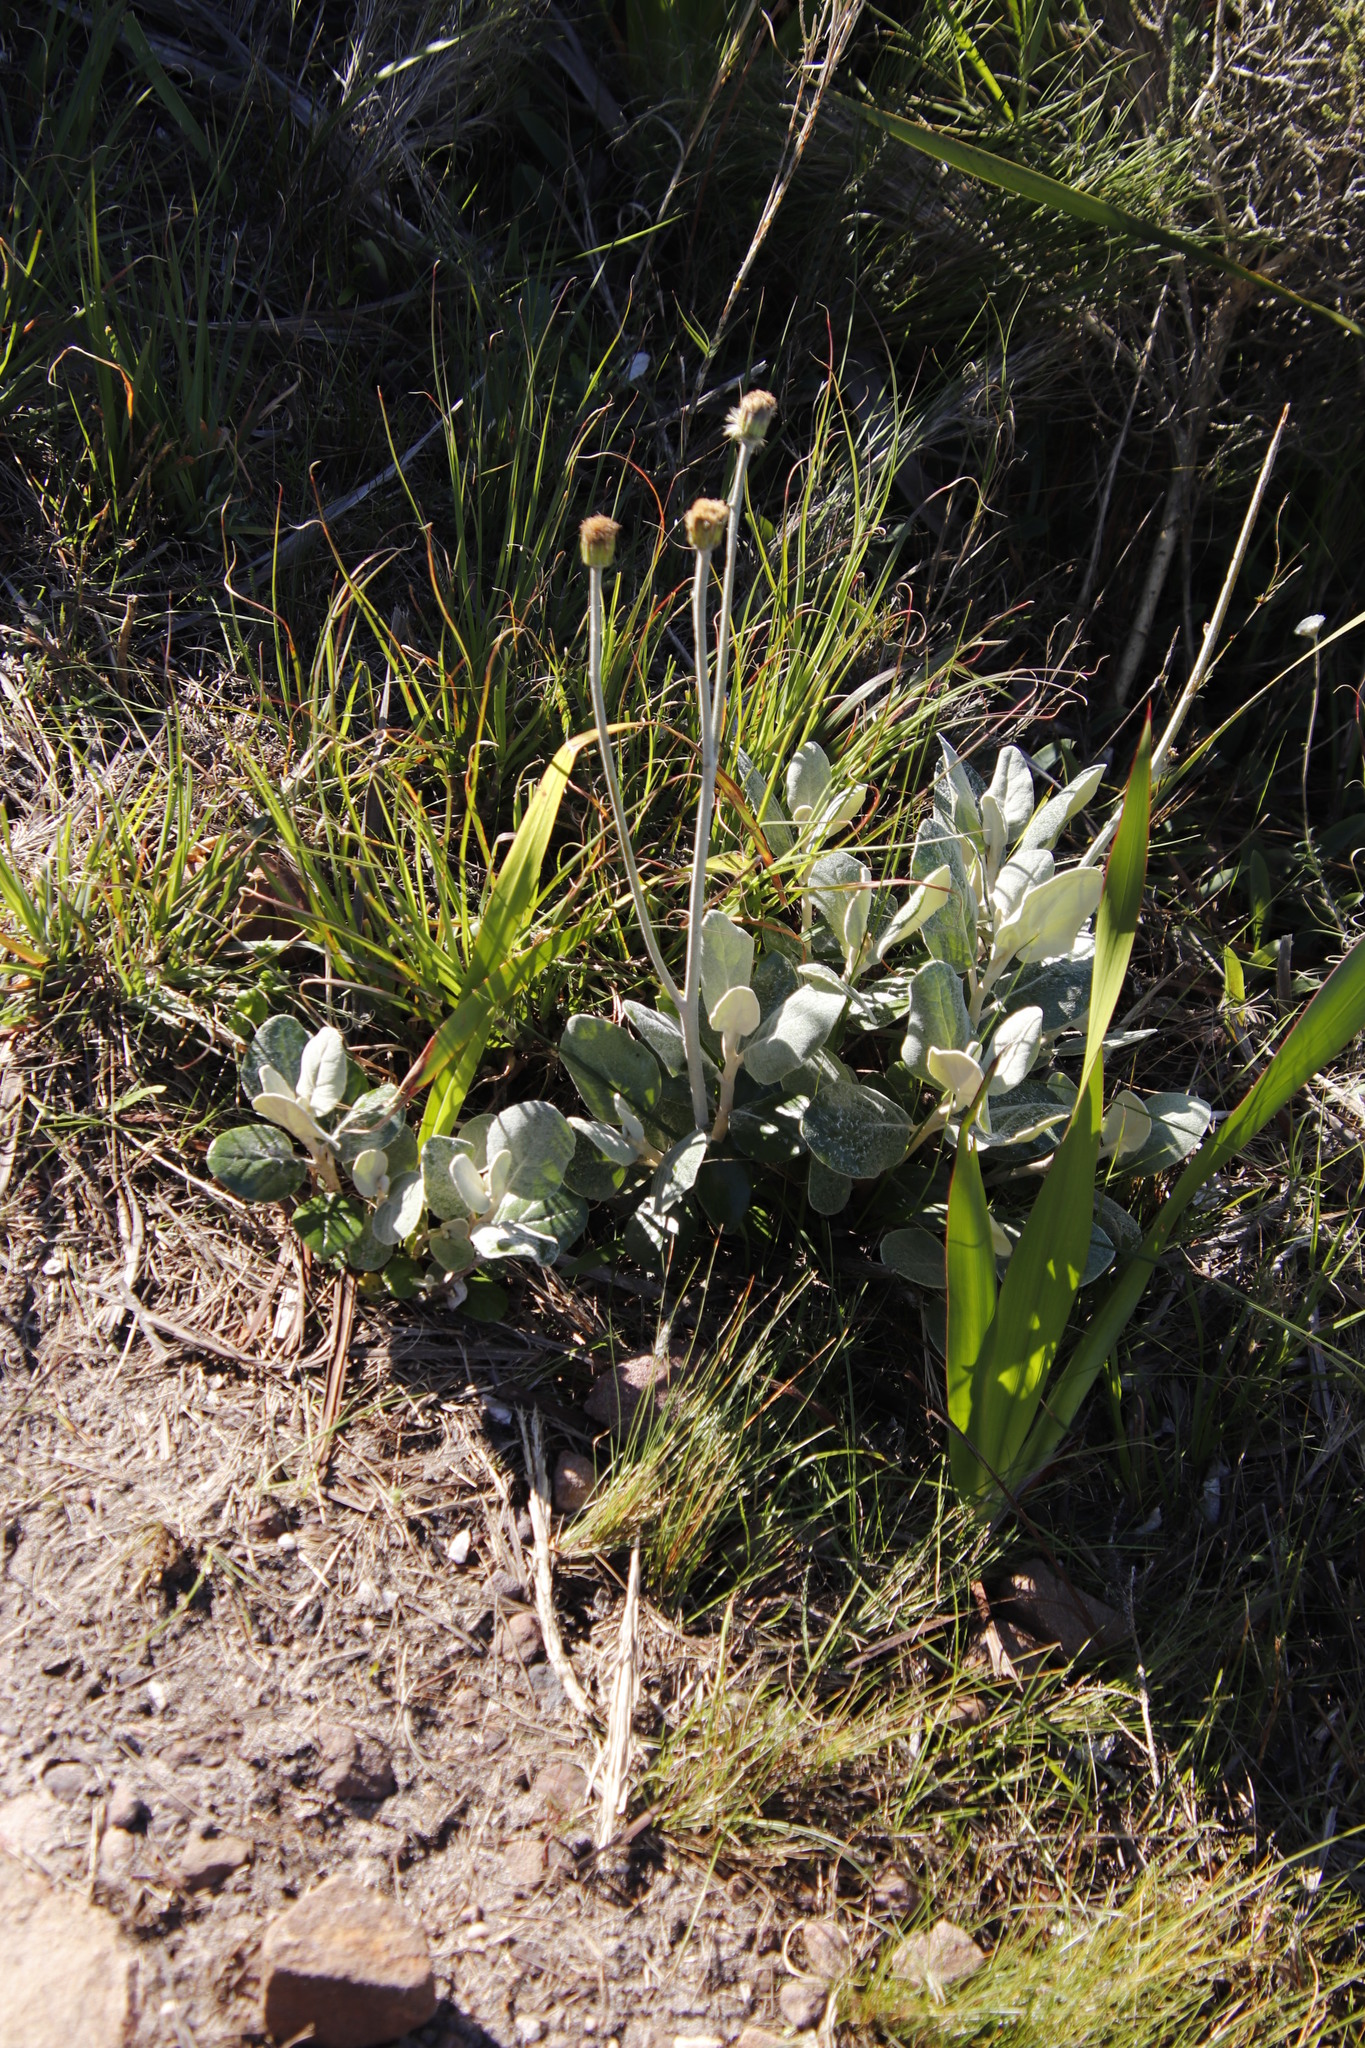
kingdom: Plantae
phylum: Tracheophyta
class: Magnoliopsida
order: Asterales
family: Asteraceae
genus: Capelio
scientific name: Capelio tabularis
